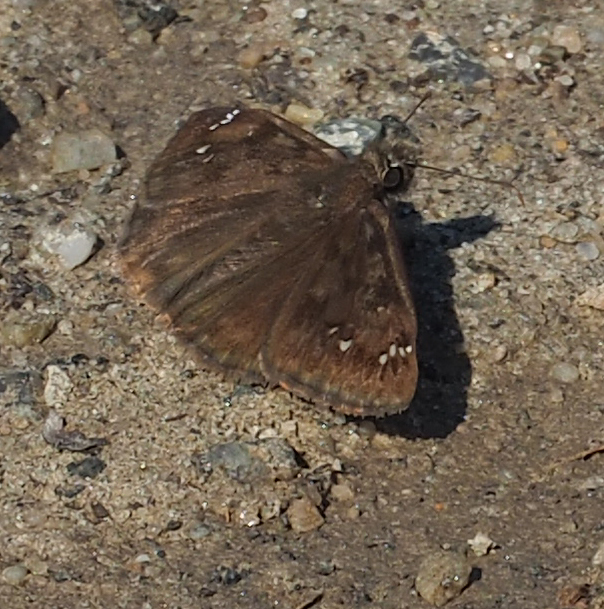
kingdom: Animalia
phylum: Arthropoda
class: Insecta
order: Lepidoptera
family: Hesperiidae
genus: Erynnis
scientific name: Erynnis horatius
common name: Horace's duskywing
